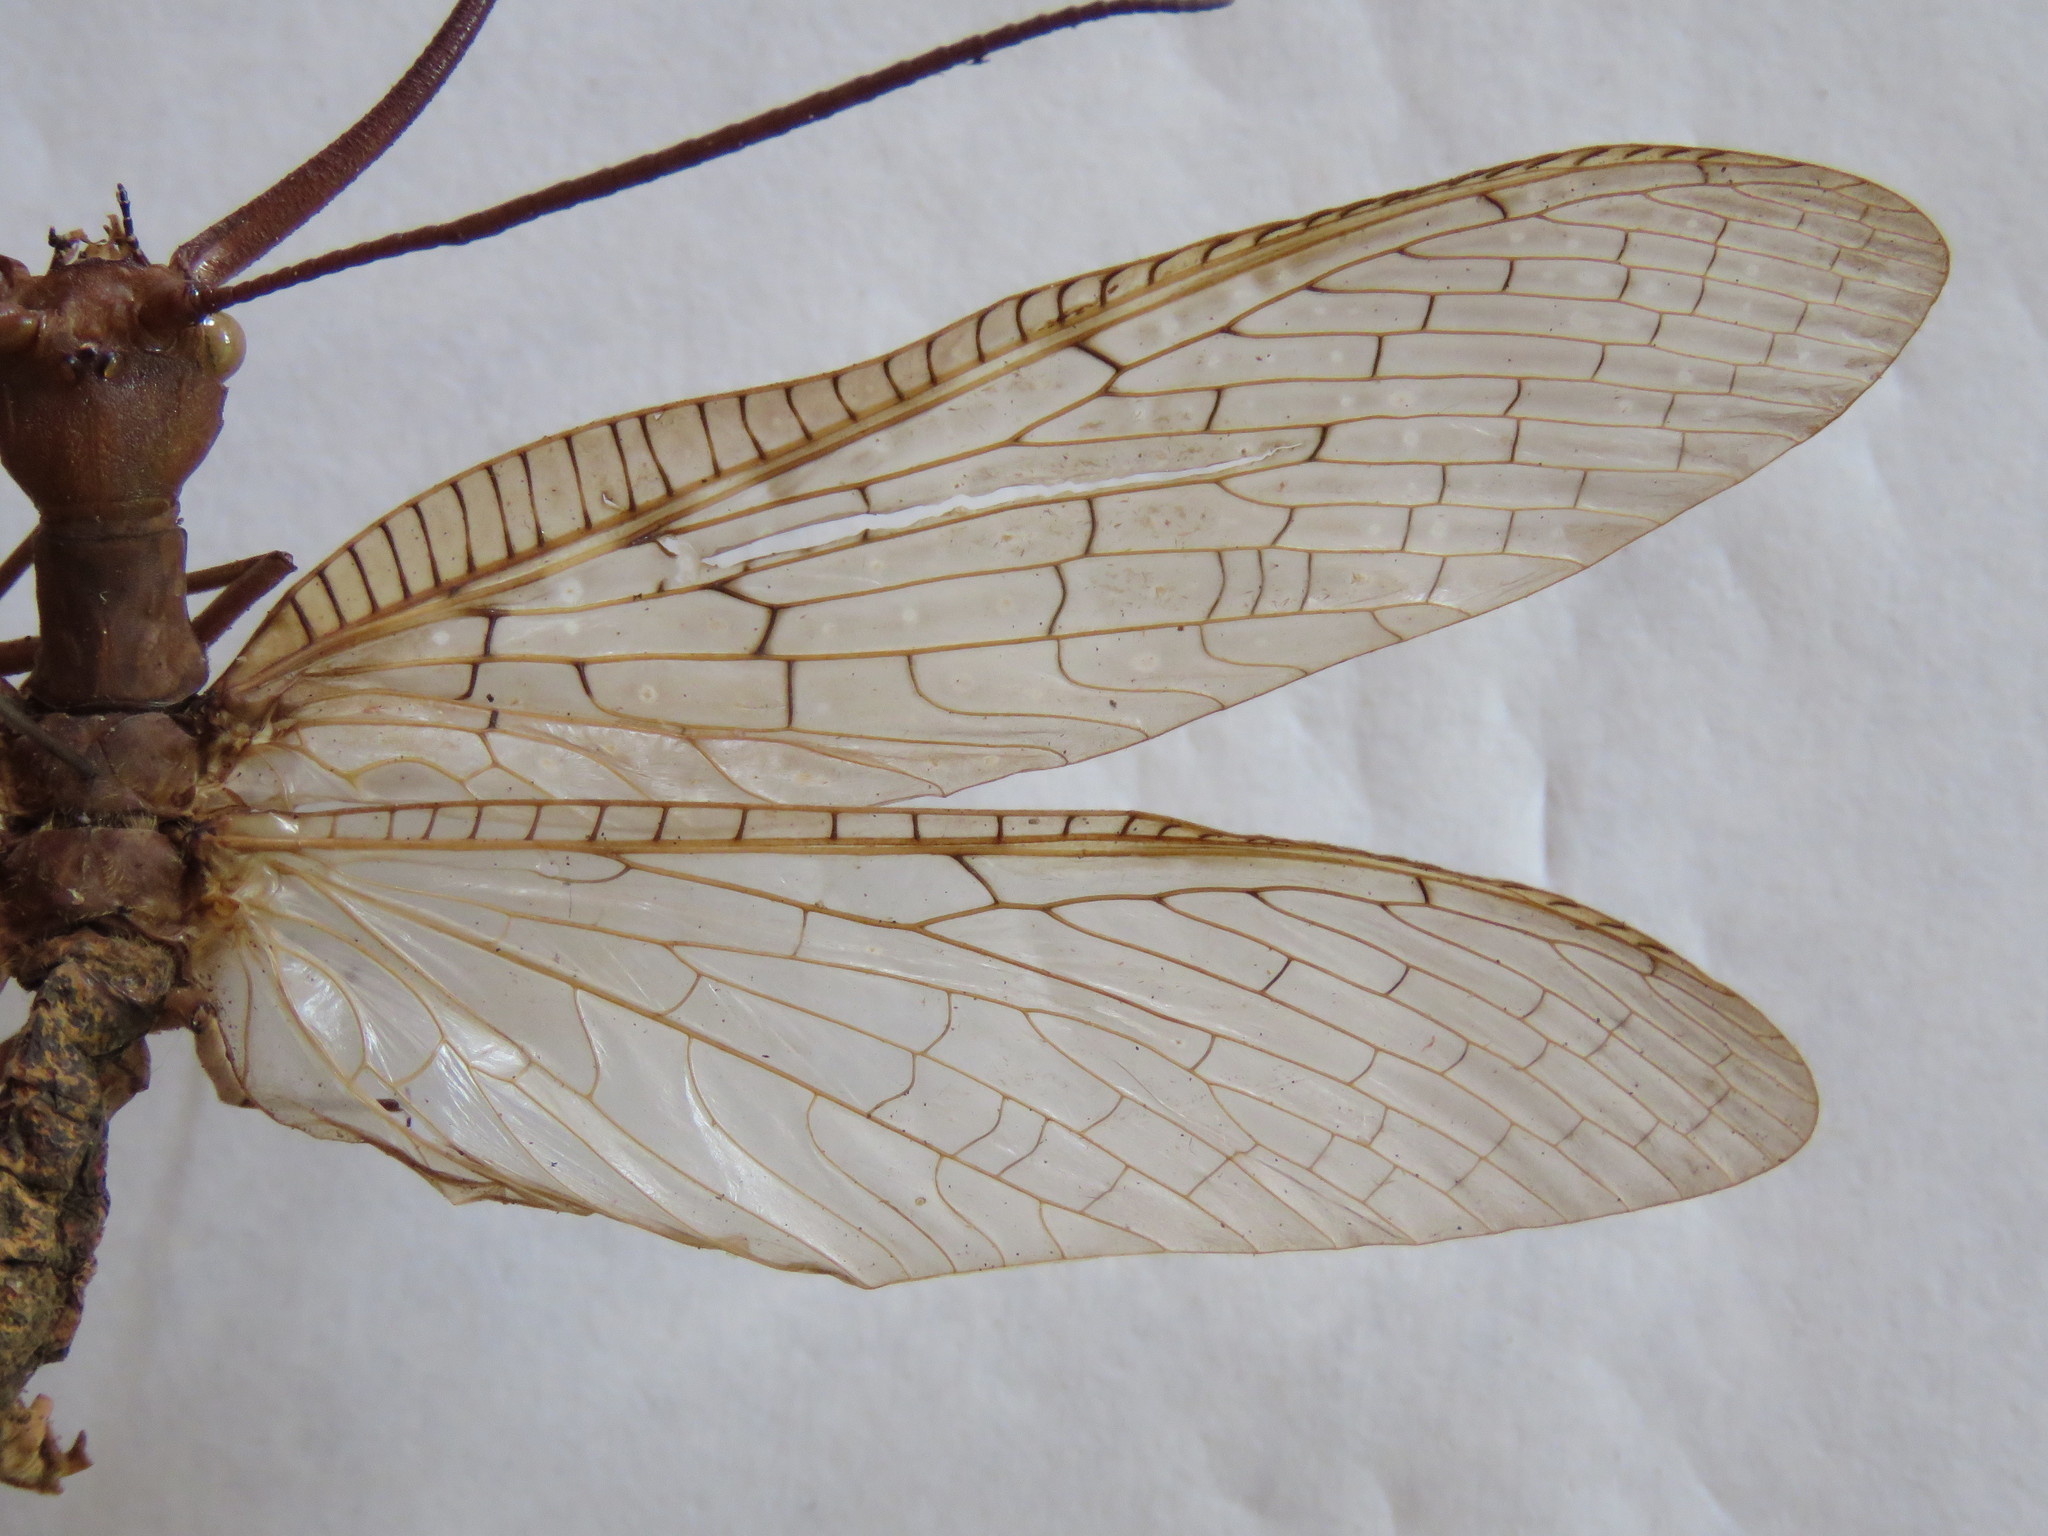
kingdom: Animalia
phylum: Arthropoda
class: Insecta
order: Megaloptera
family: Corydalidae
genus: Corydalus
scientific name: Corydalus luteus
